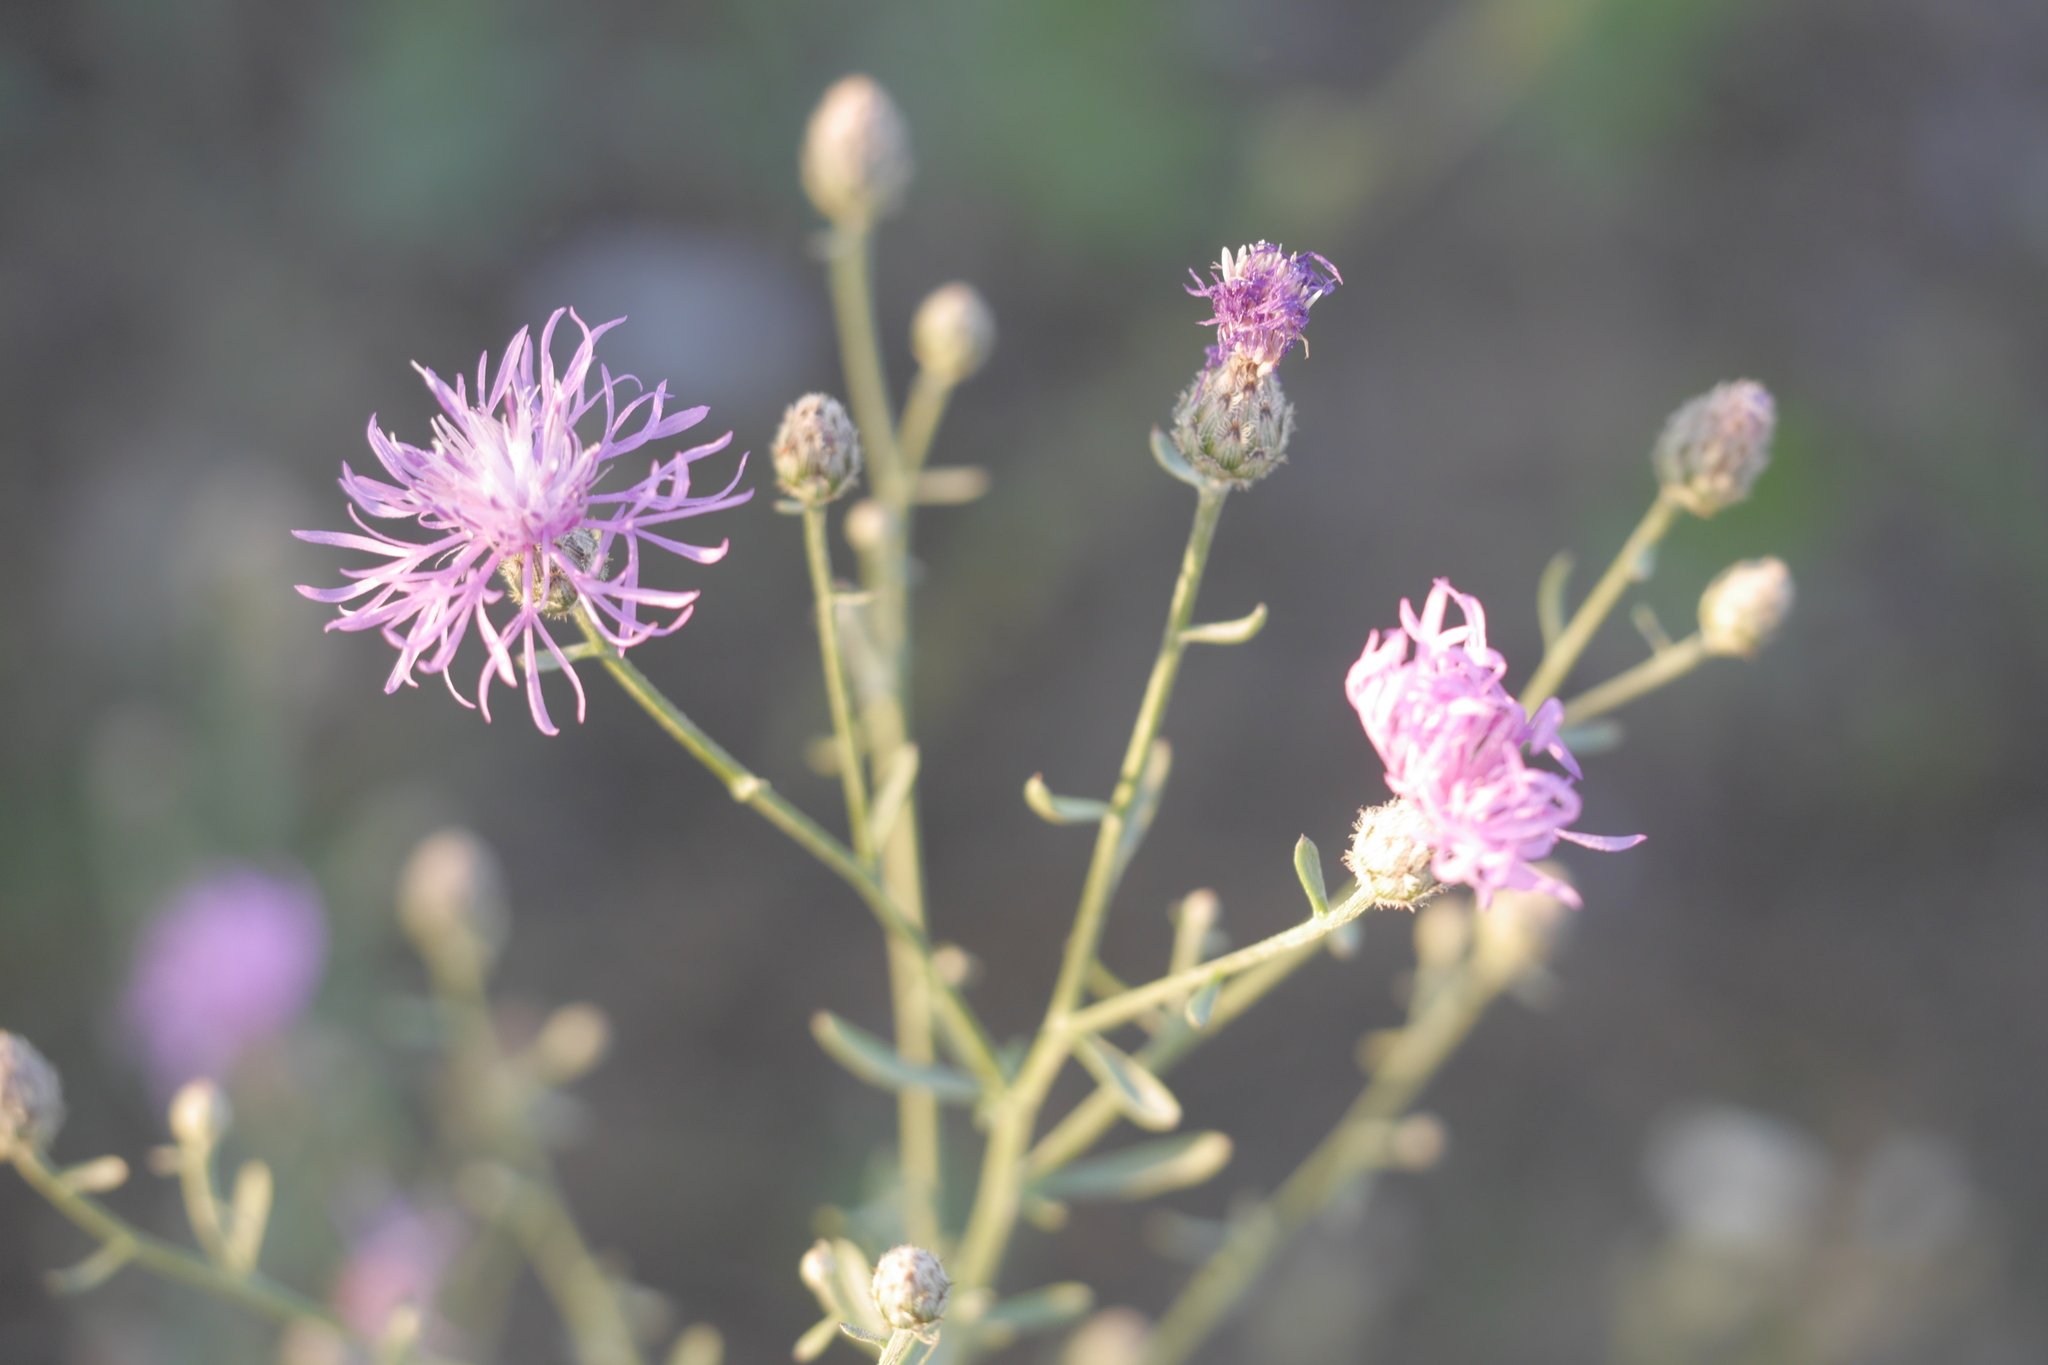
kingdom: Plantae
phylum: Tracheophyta
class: Magnoliopsida
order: Asterales
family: Asteraceae
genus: Centaurea
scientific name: Centaurea stoebe
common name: Spotted knapweed
